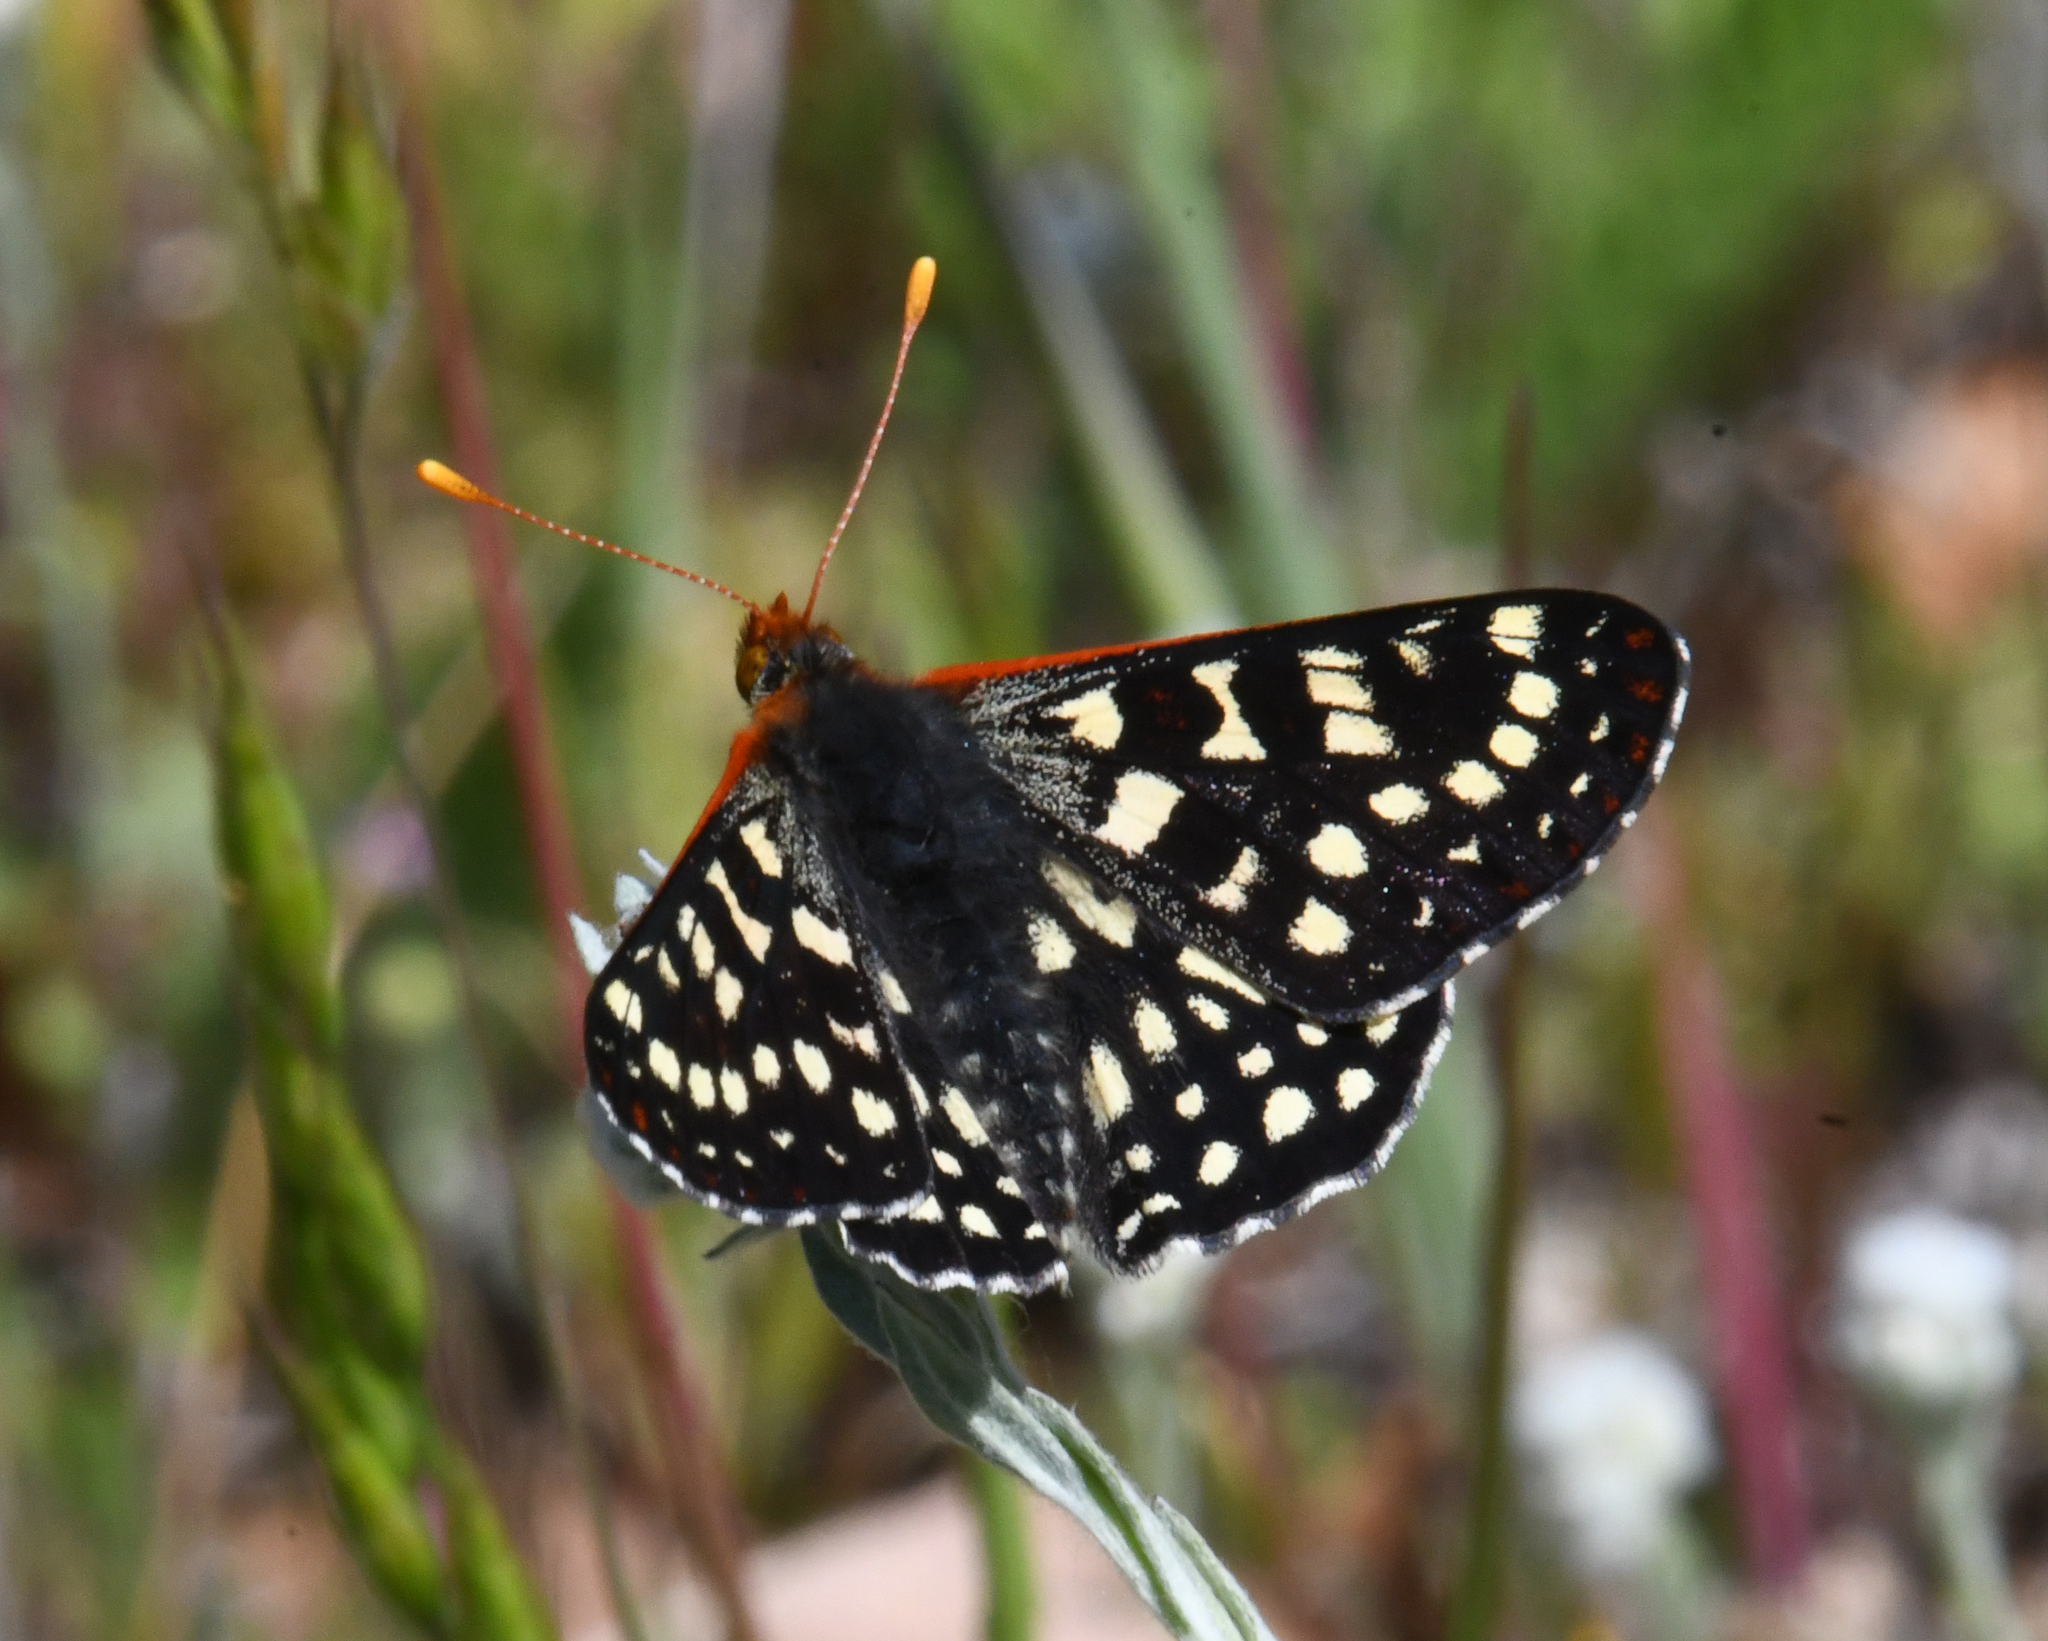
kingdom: Animalia
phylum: Arthropoda
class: Insecta
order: Lepidoptera
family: Nymphalidae
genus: Occidryas
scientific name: Occidryas chalcedona
